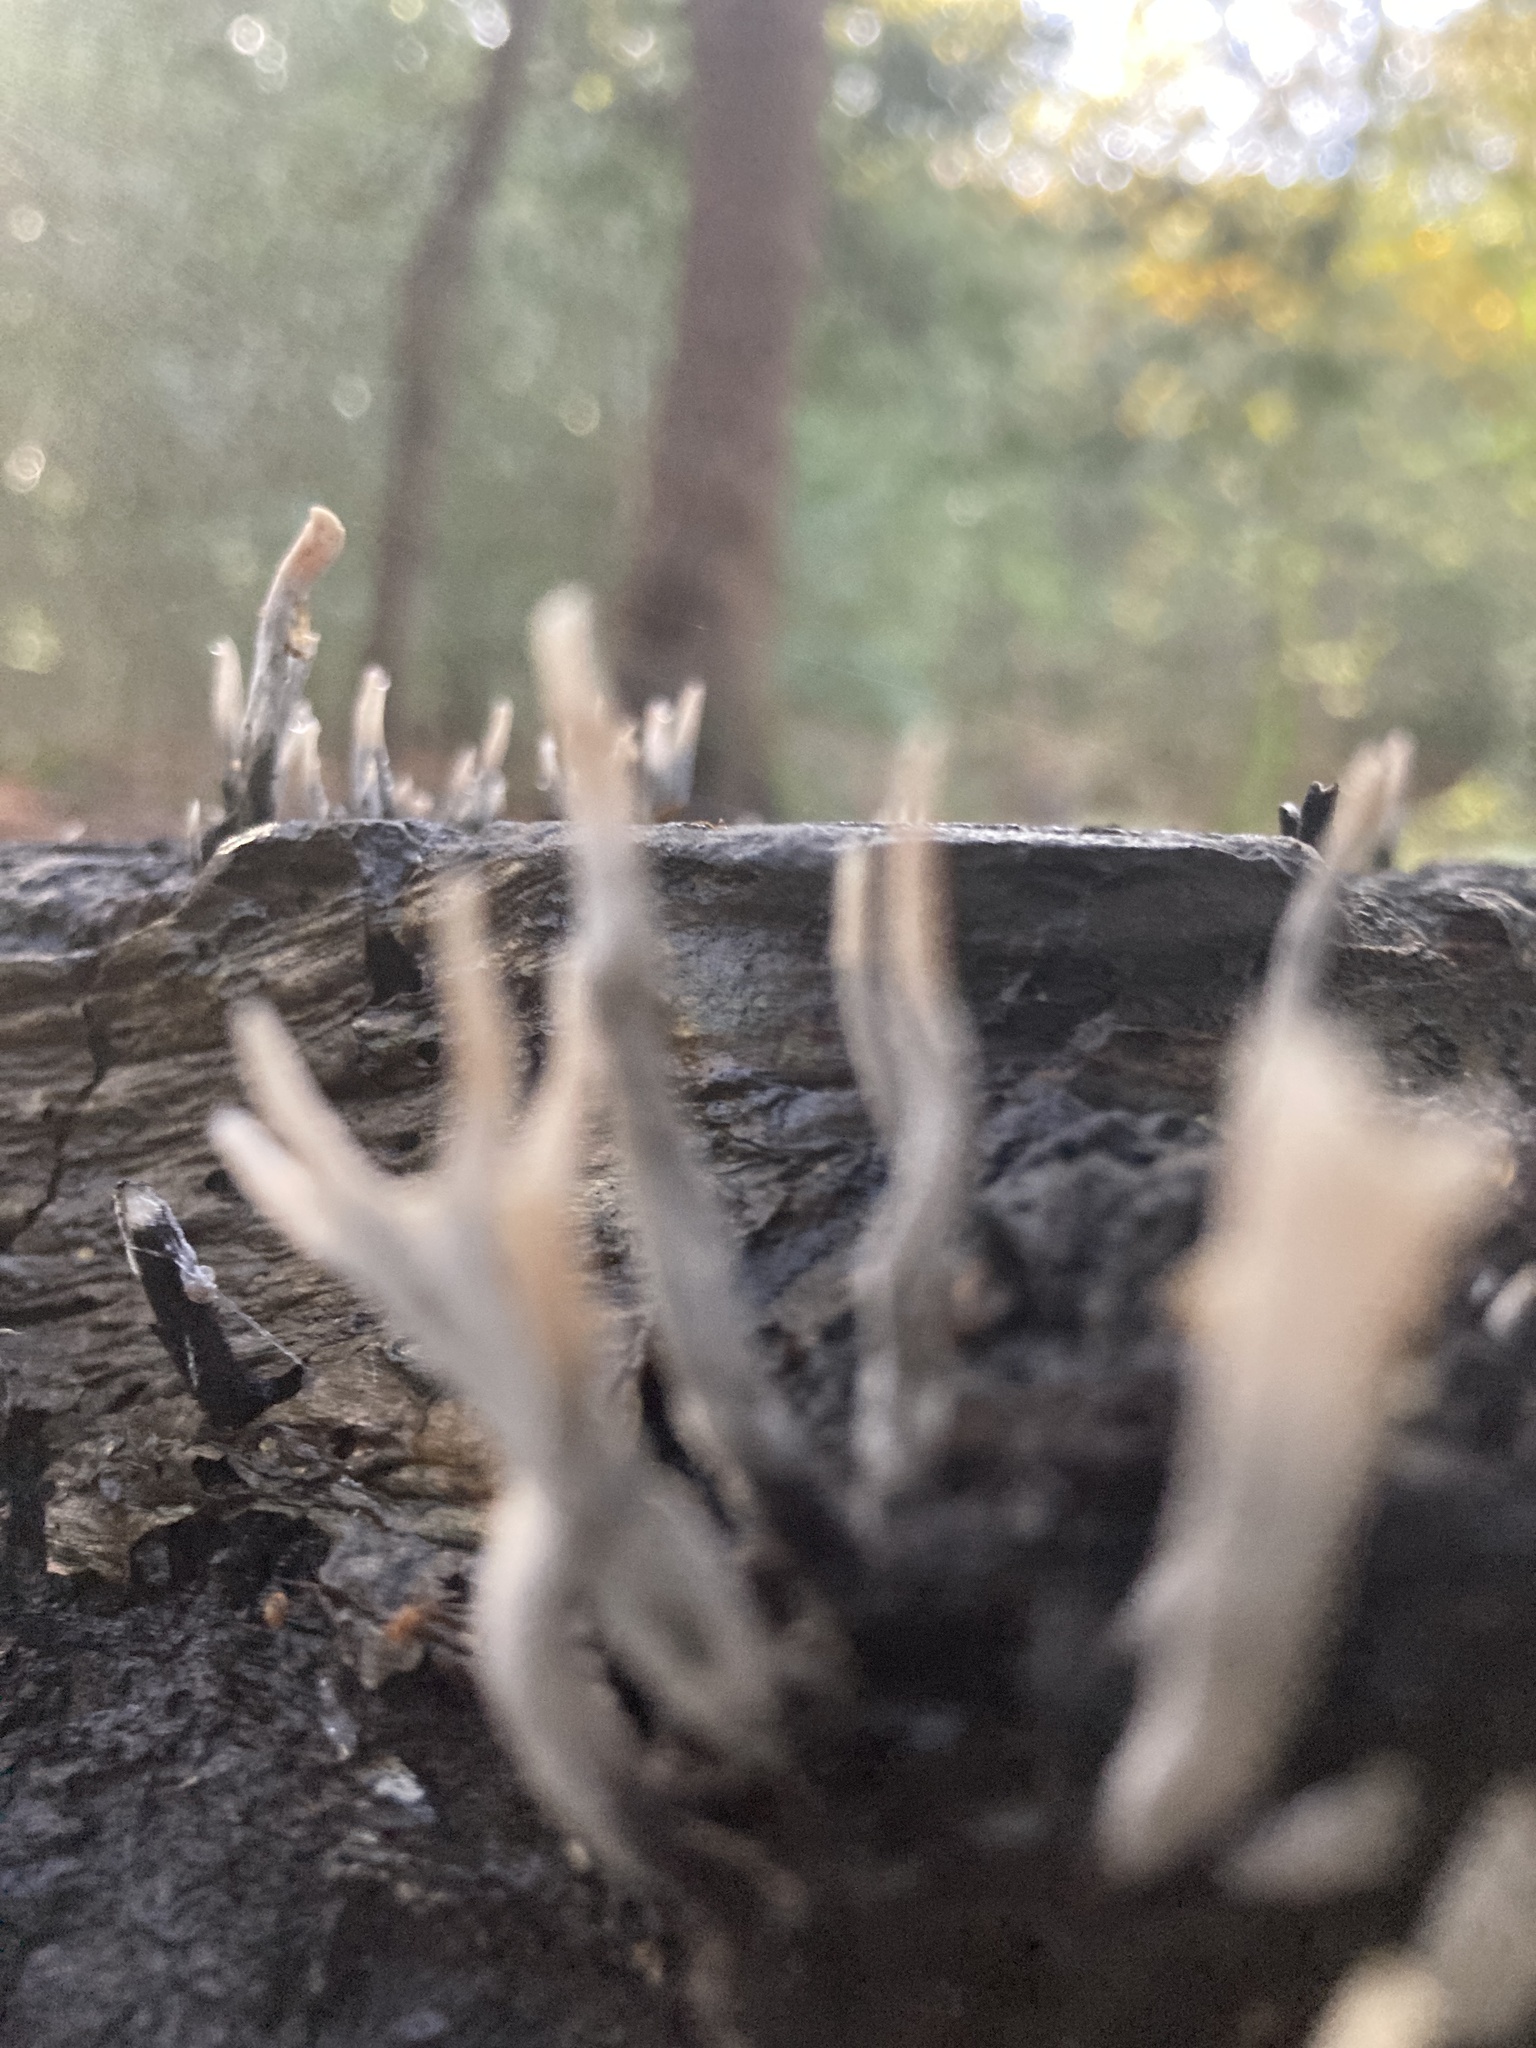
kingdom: Fungi
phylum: Ascomycota
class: Sordariomycetes
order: Xylariales
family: Xylariaceae
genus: Xylaria
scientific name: Xylaria hypoxylon
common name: Candle-snuff fungus
